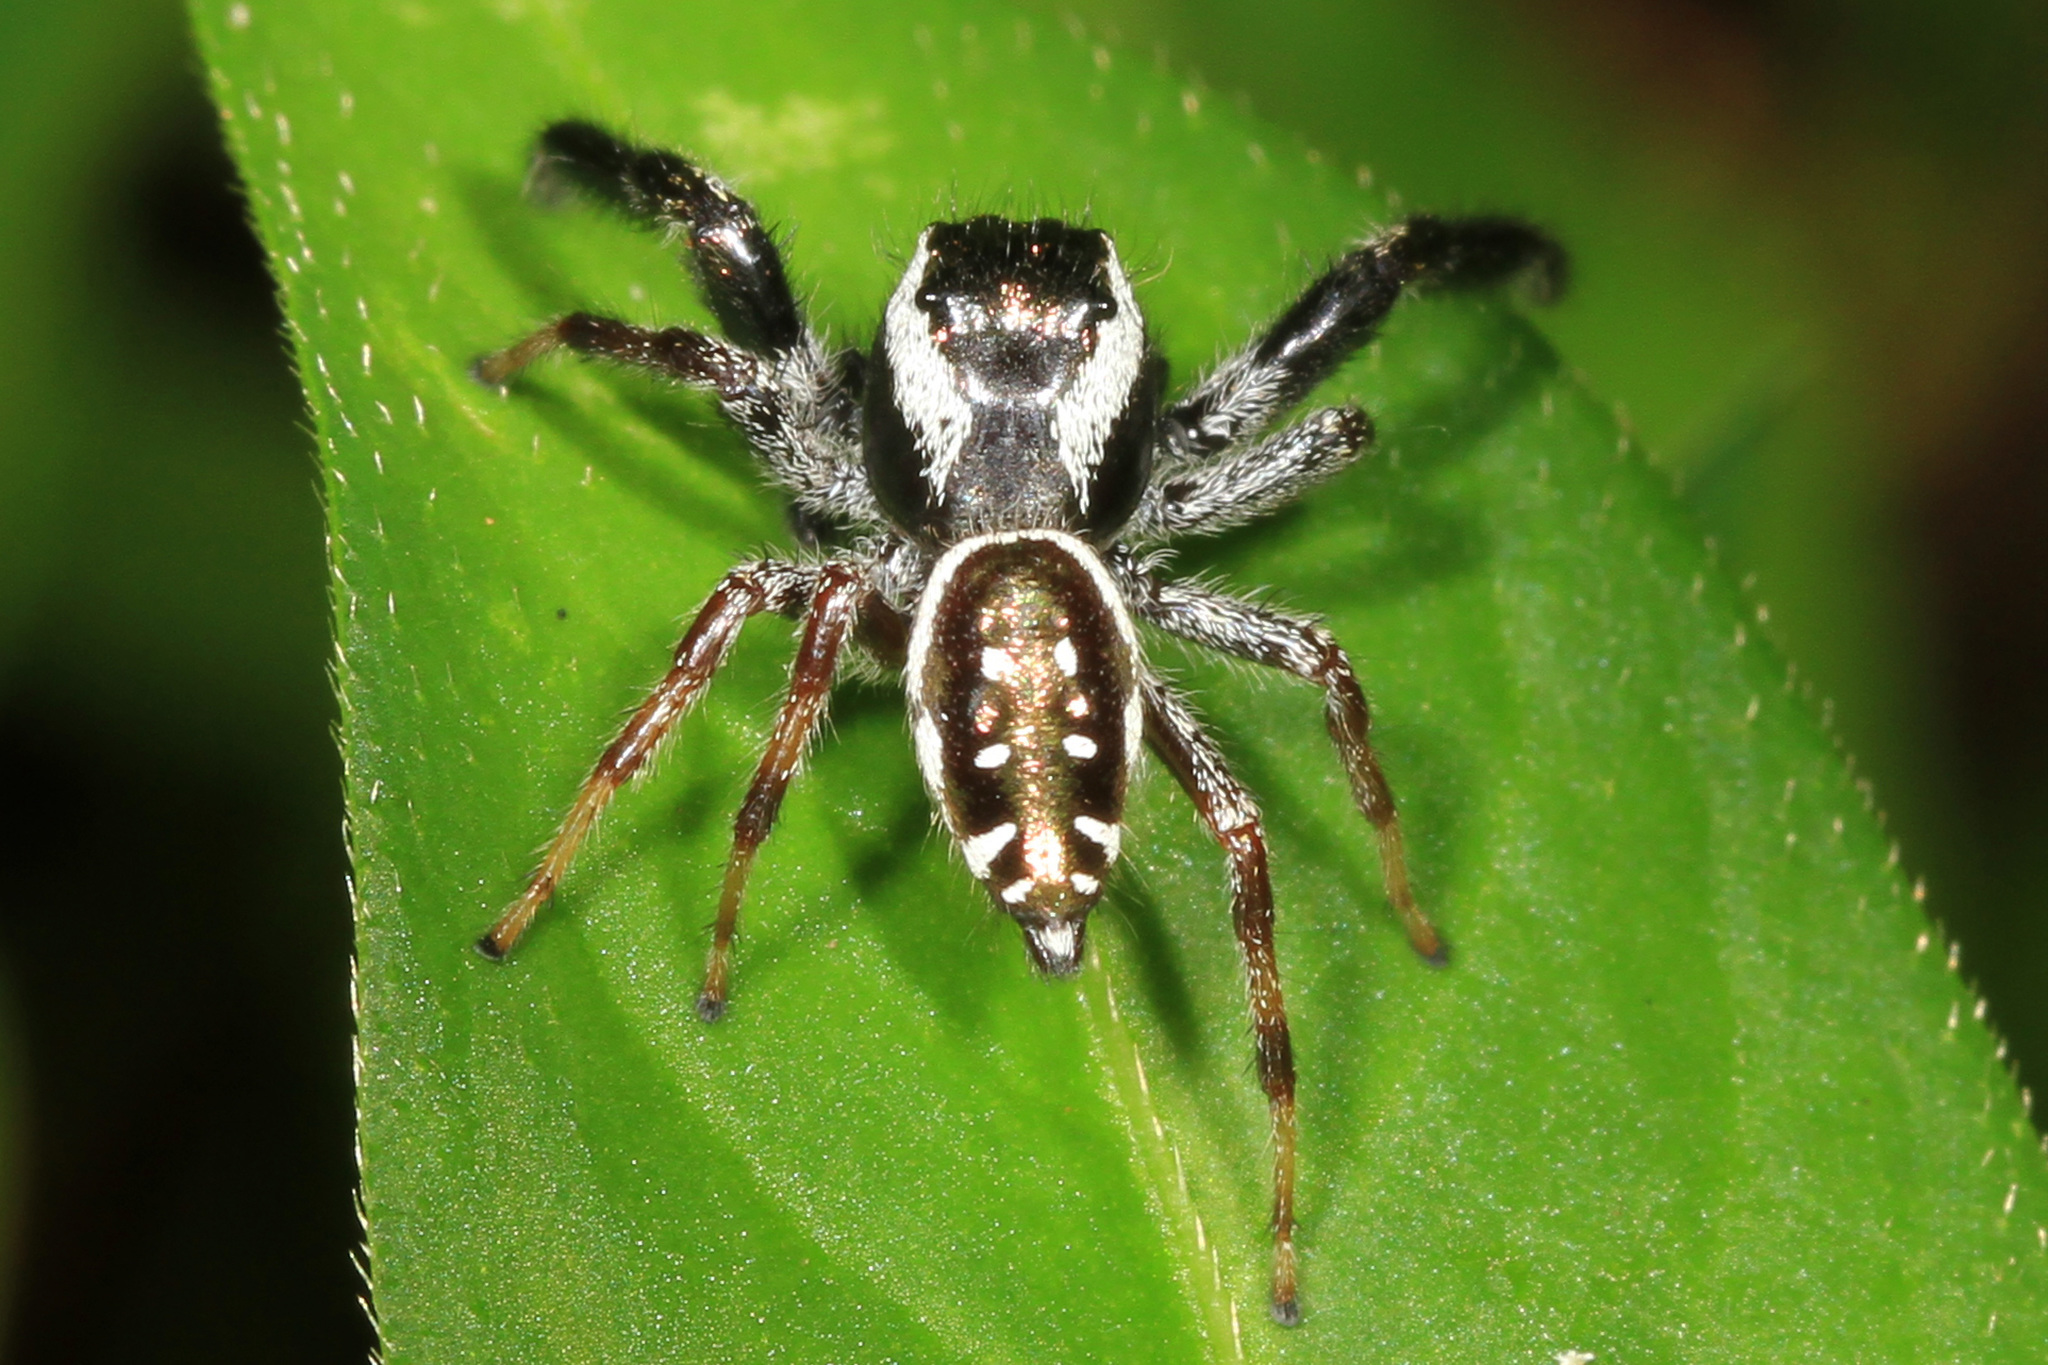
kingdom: Animalia
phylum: Arthropoda
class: Arachnida
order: Araneae
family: Salticidae
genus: Paraphidippus
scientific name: Paraphidippus aurantius
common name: Jumping spiders
